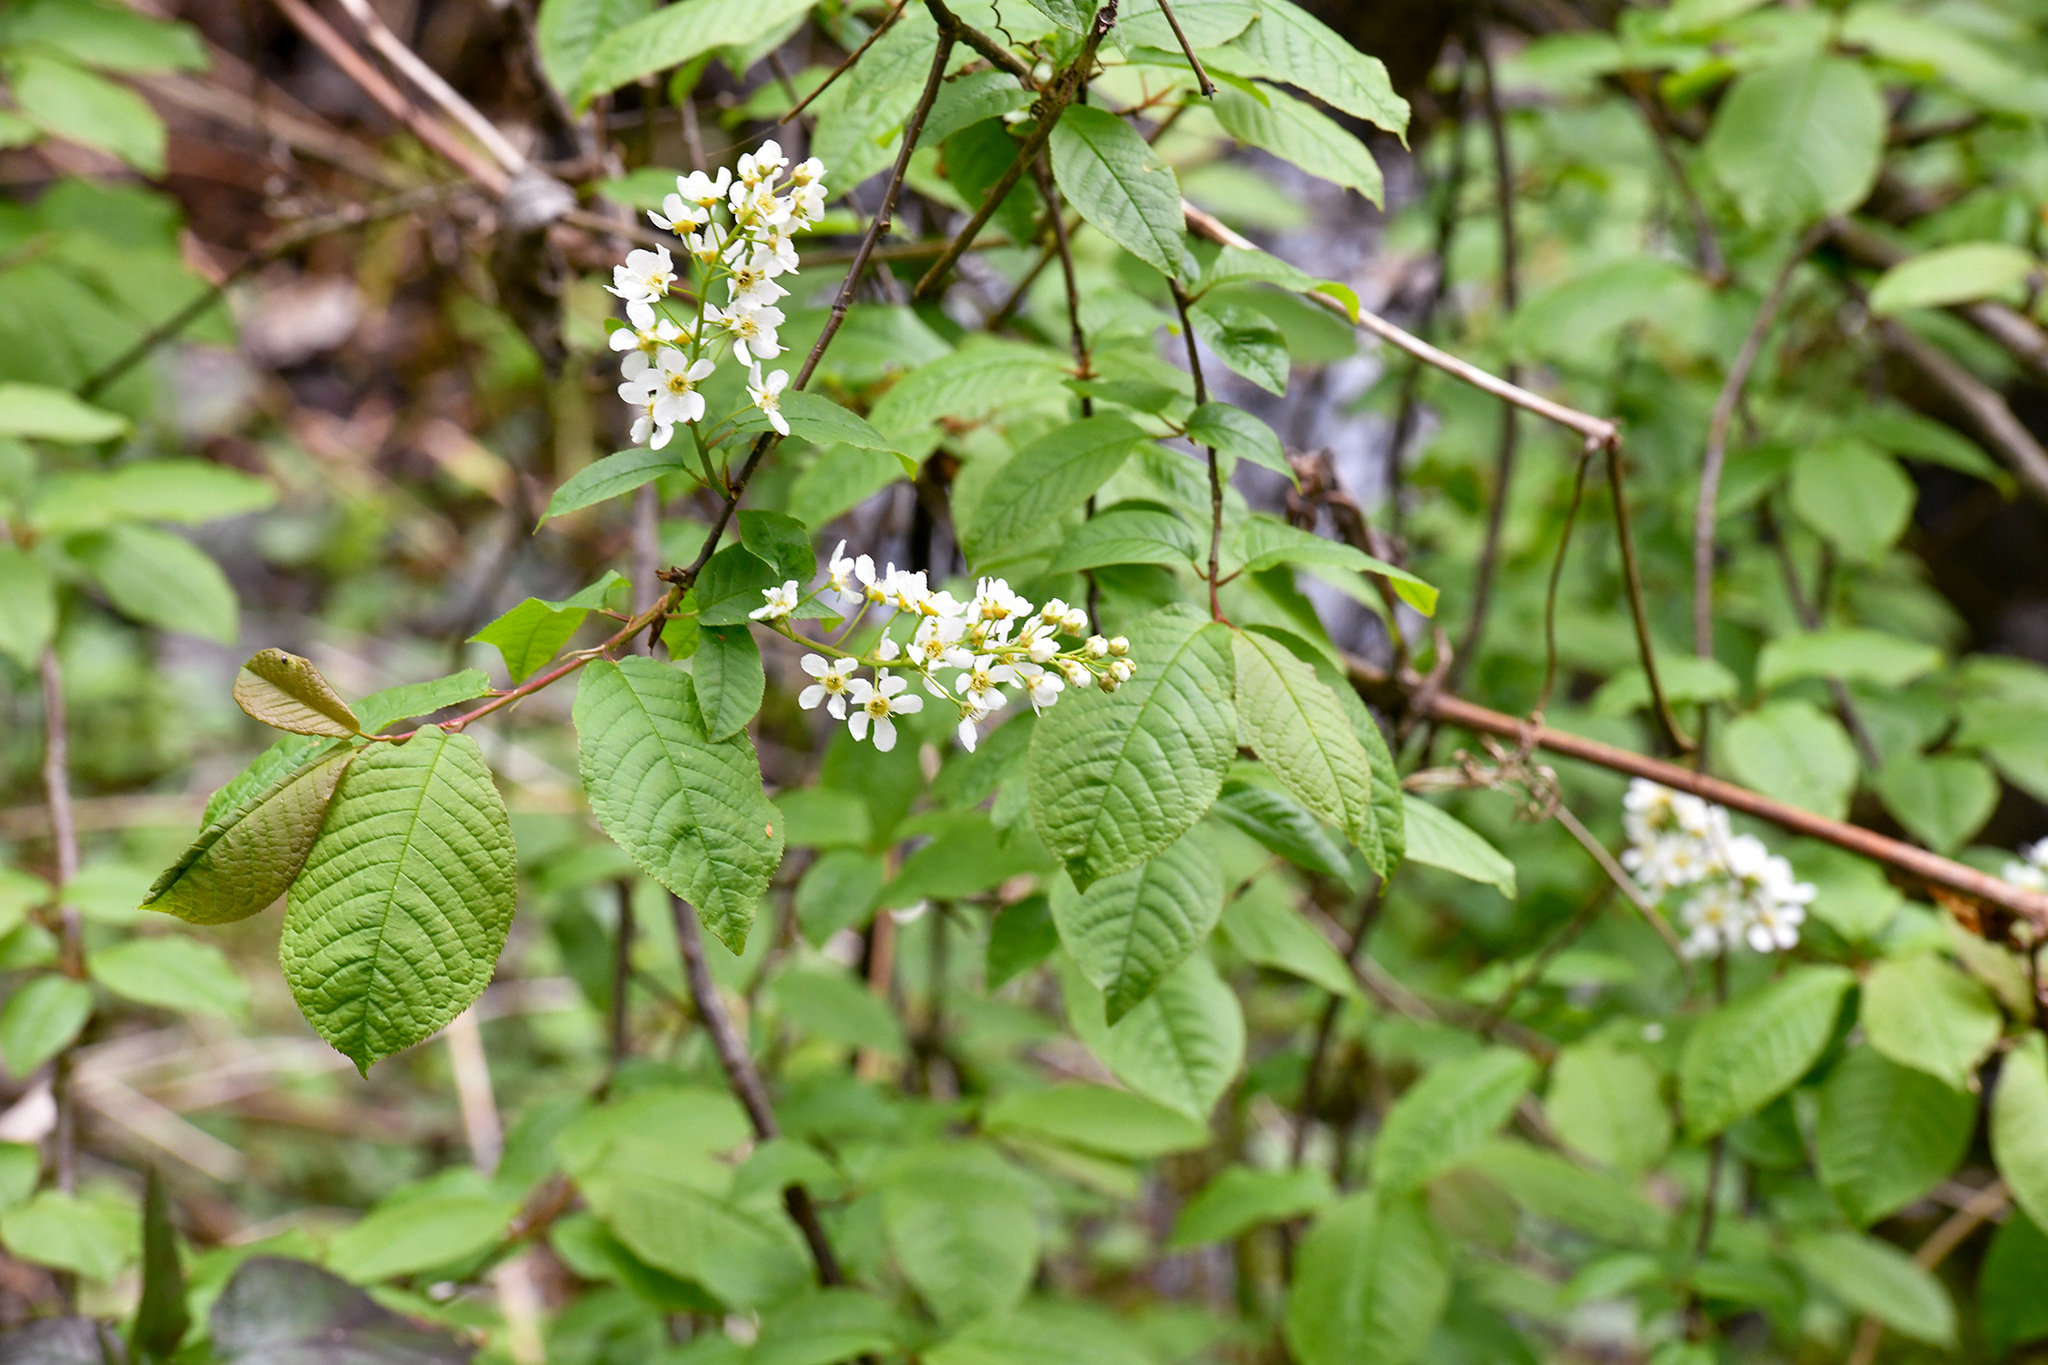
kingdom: Plantae
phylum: Tracheophyta
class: Magnoliopsida
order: Rosales
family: Rosaceae
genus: Prunus
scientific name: Prunus padus
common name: Bird cherry
